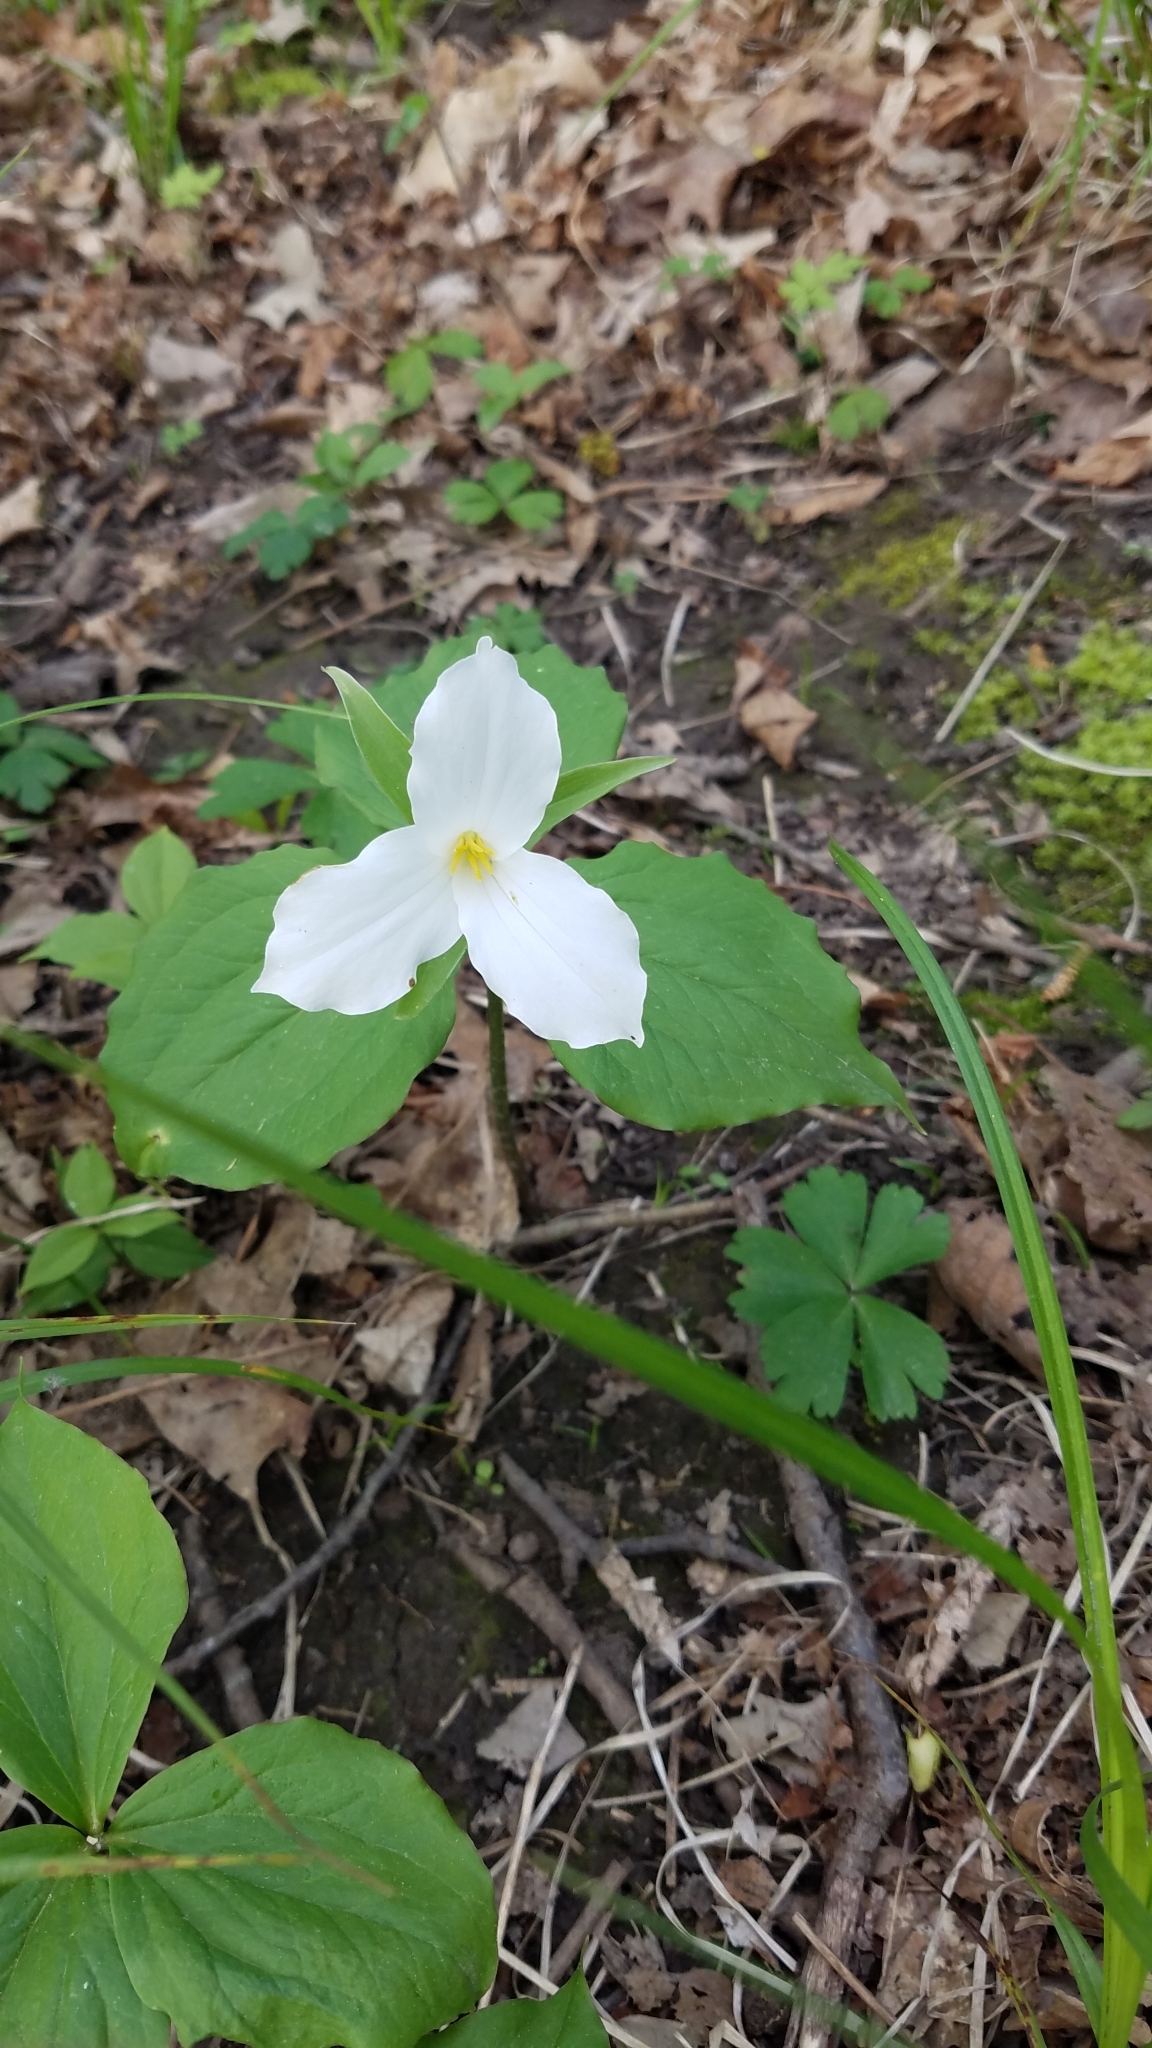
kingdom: Plantae
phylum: Tracheophyta
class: Liliopsida
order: Liliales
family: Melanthiaceae
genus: Trillium
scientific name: Trillium grandiflorum
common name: Great white trillium
